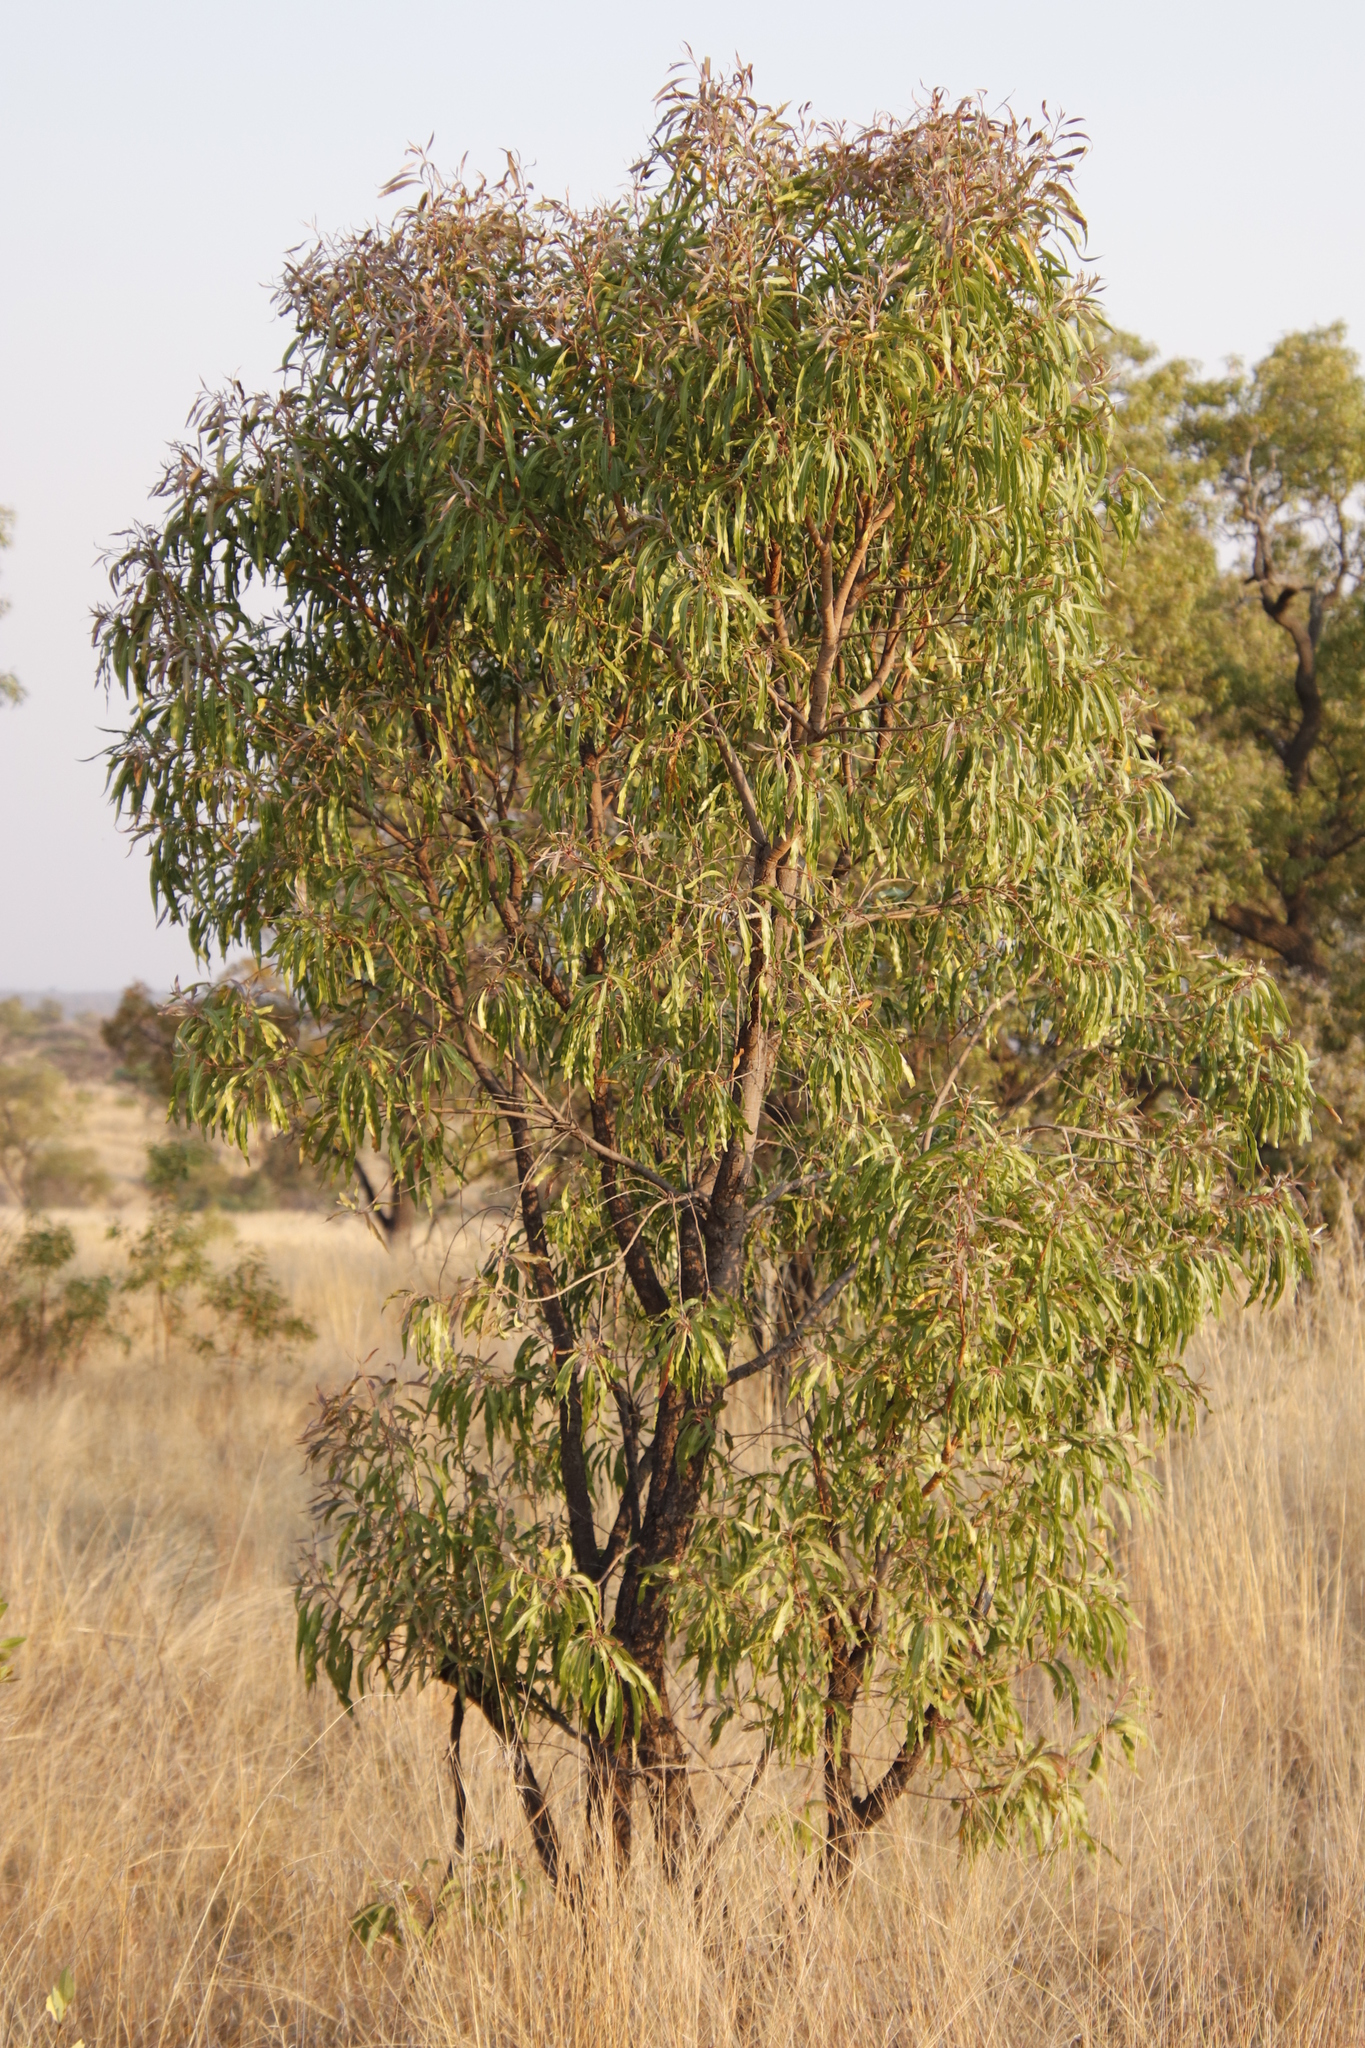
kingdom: Plantae
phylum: Tracheophyta
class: Magnoliopsida
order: Proteales
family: Proteaceae
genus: Faurea
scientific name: Faurea saligna
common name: African bean
